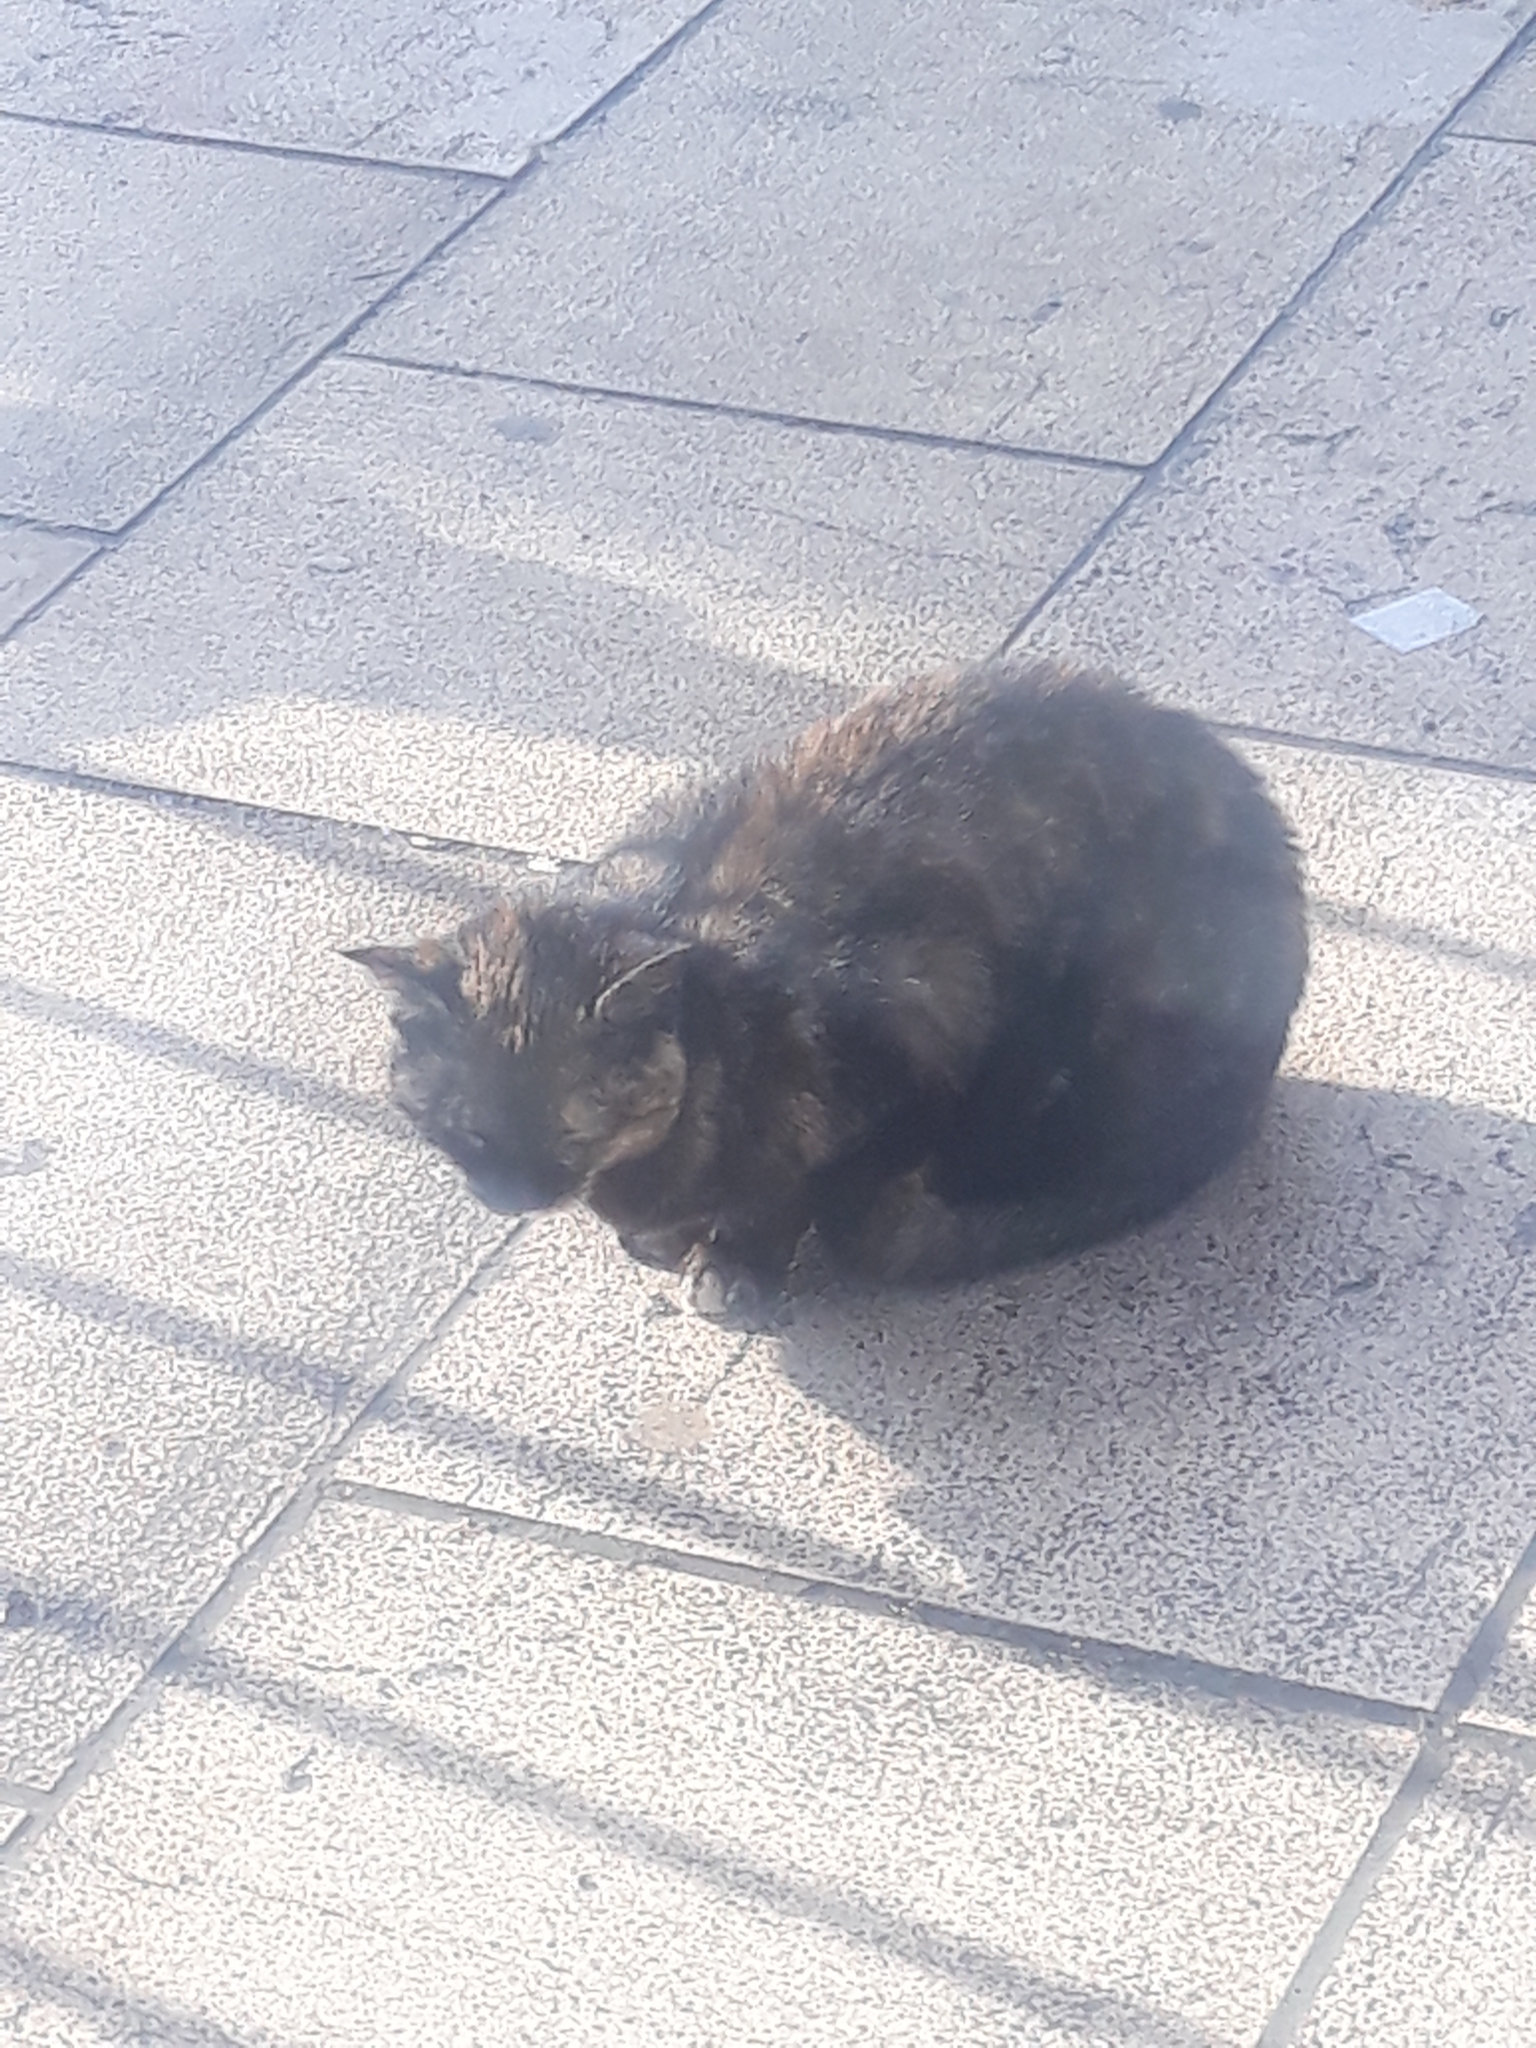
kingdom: Animalia
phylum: Chordata
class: Mammalia
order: Carnivora
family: Felidae
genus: Felis
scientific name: Felis catus
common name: Domestic cat
